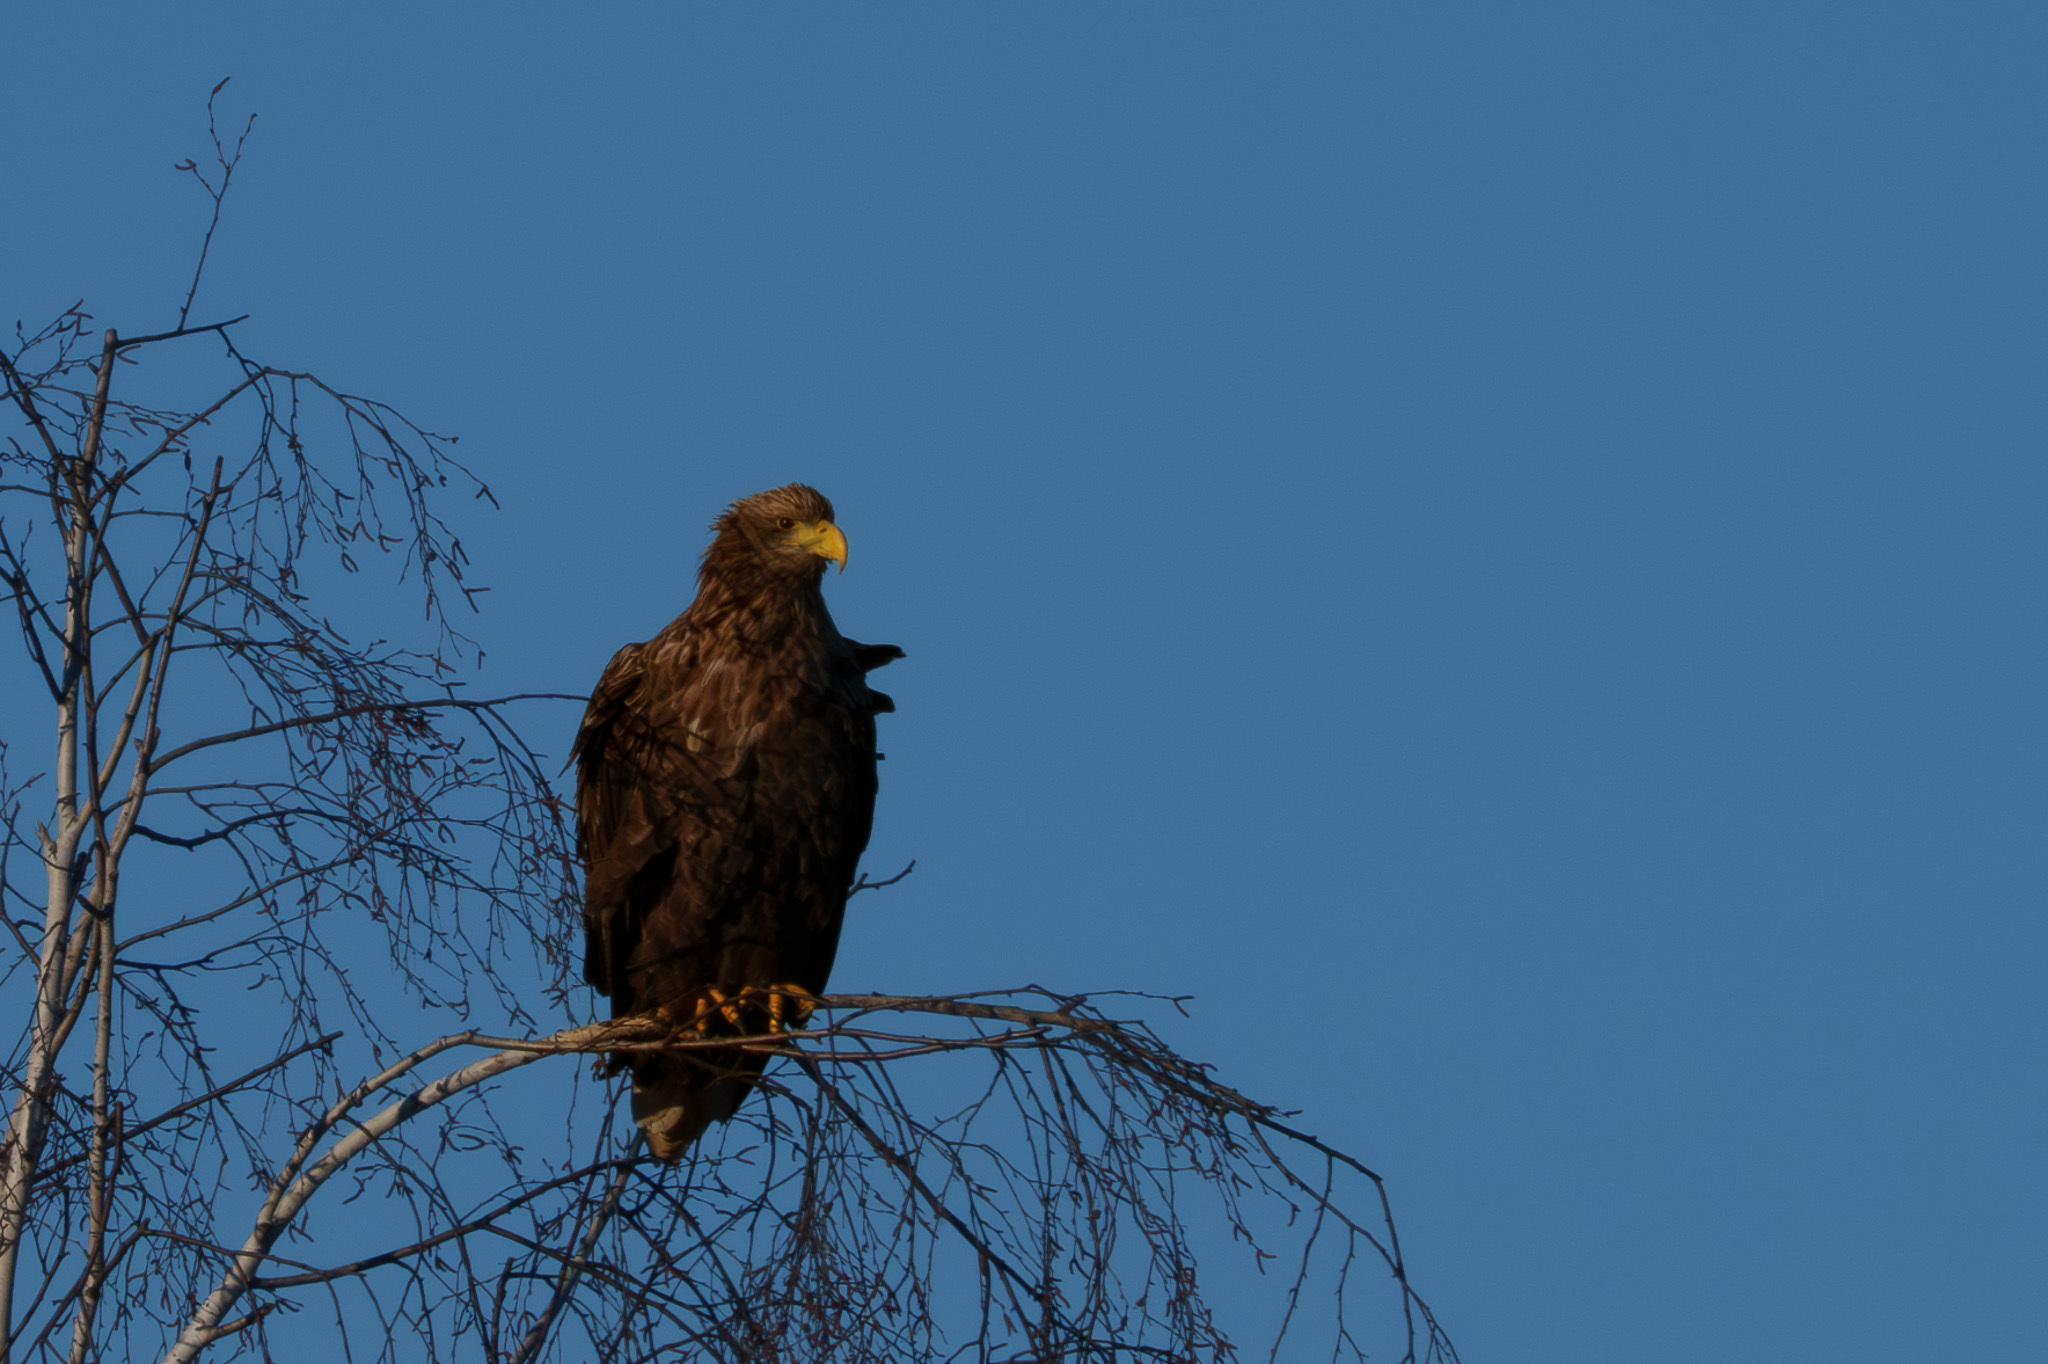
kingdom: Animalia
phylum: Chordata
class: Aves
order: Accipitriformes
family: Accipitridae
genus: Haliaeetus
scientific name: Haliaeetus albicilla
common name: White-tailed eagle
